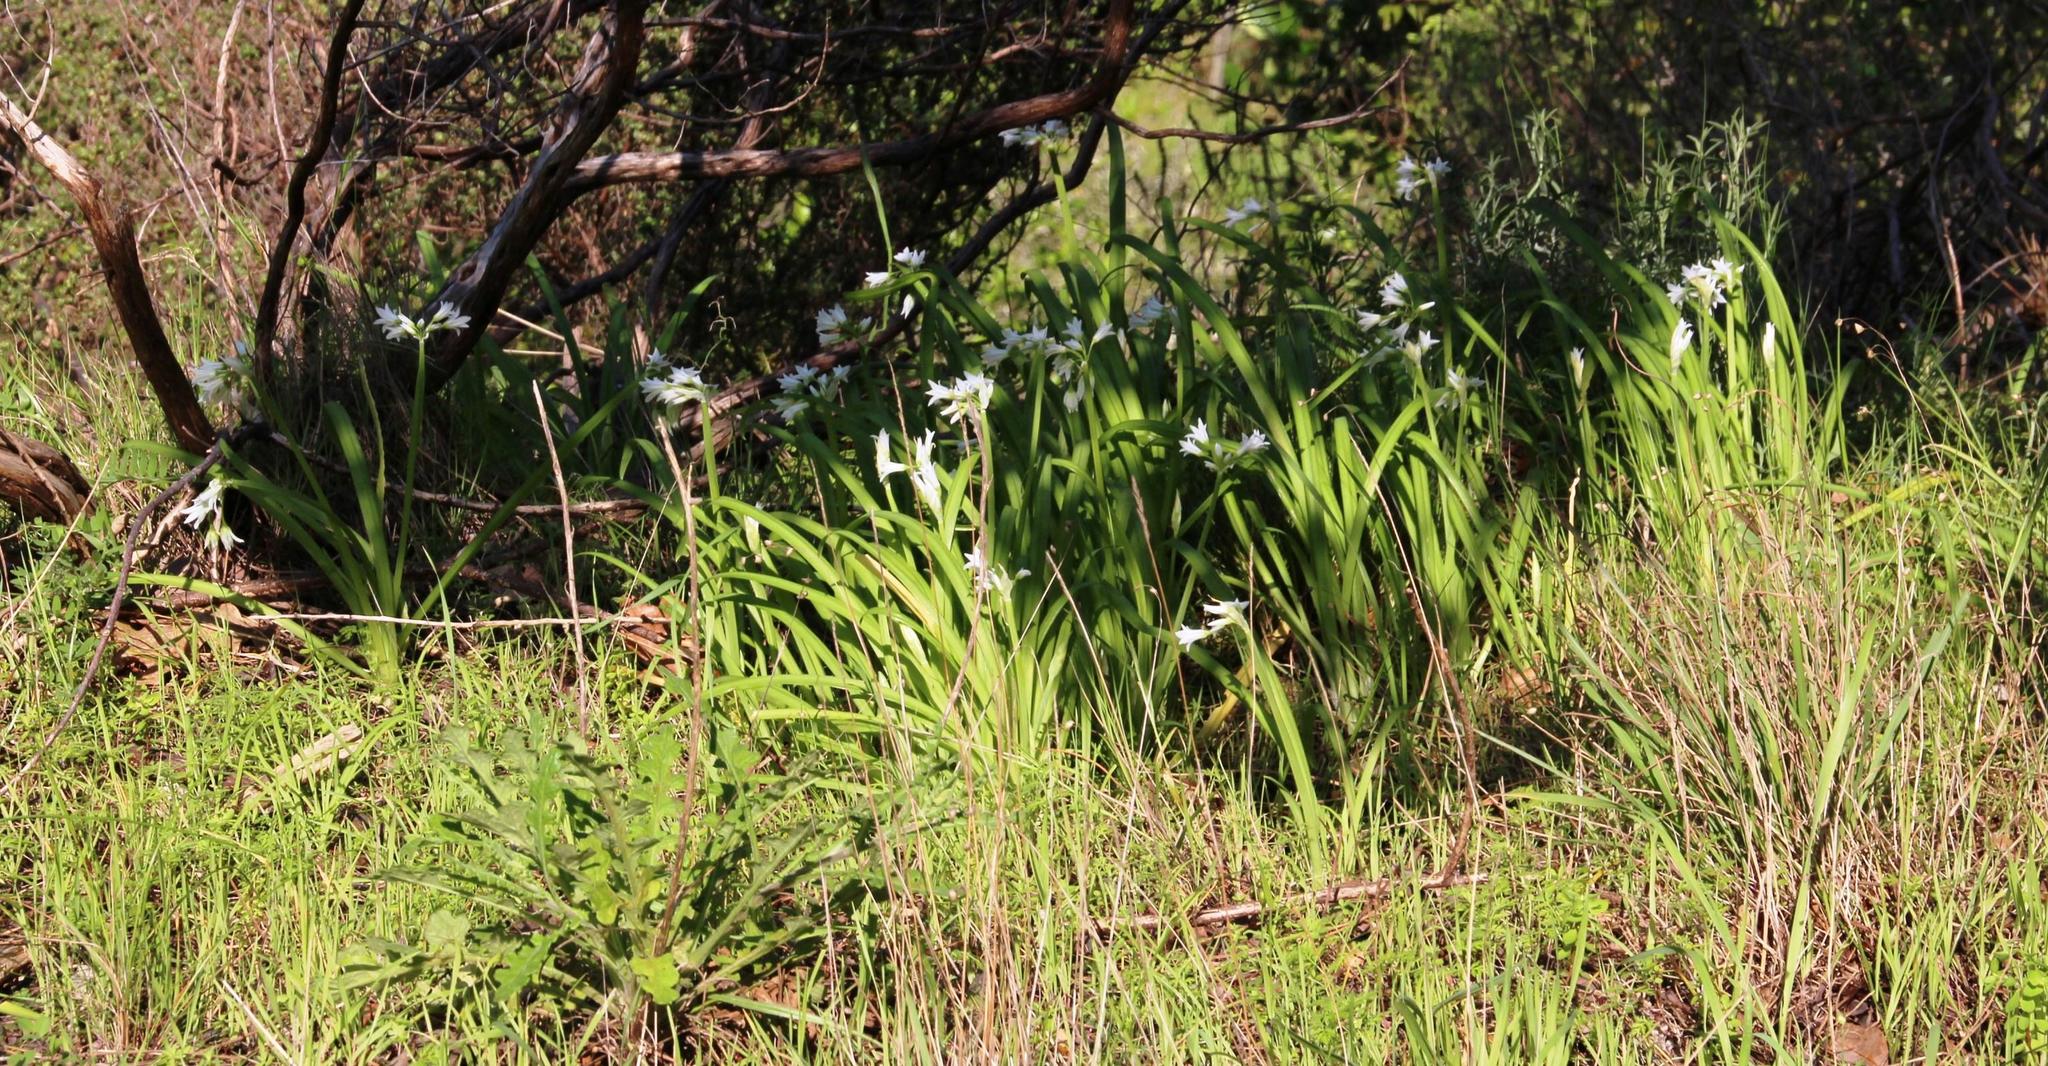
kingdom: Plantae
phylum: Tracheophyta
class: Liliopsida
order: Asparagales
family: Amaryllidaceae
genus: Allium
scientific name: Allium triquetrum
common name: Three-cornered garlic
